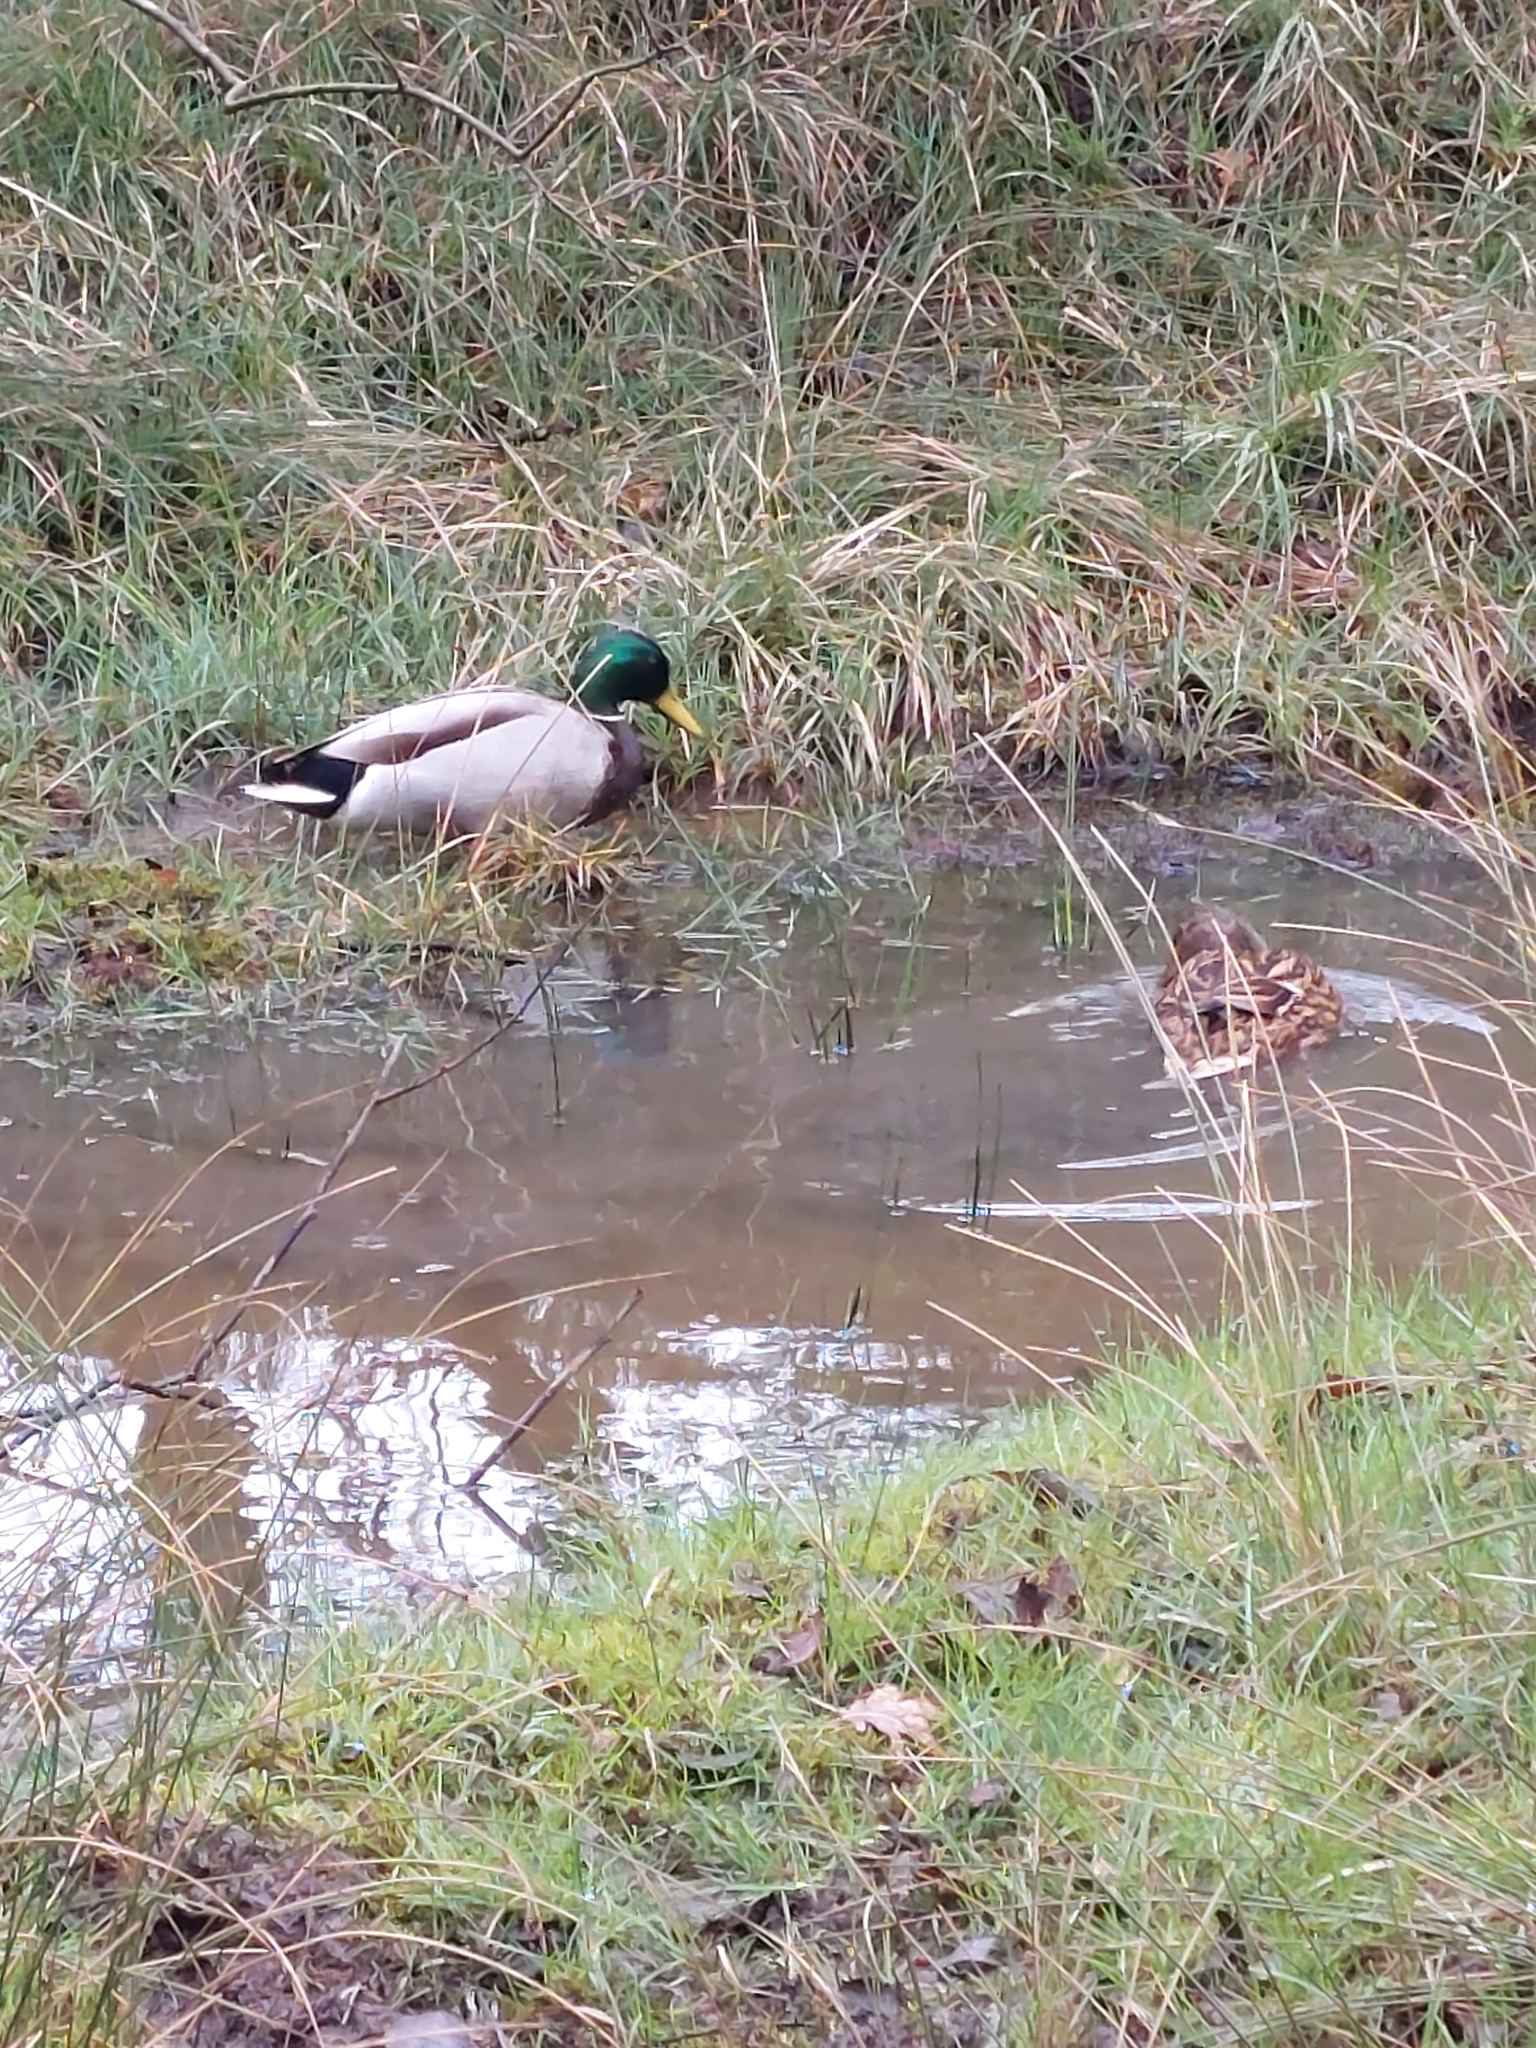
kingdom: Animalia
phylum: Chordata
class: Aves
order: Anseriformes
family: Anatidae
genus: Anas
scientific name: Anas platyrhynchos
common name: Mallard
